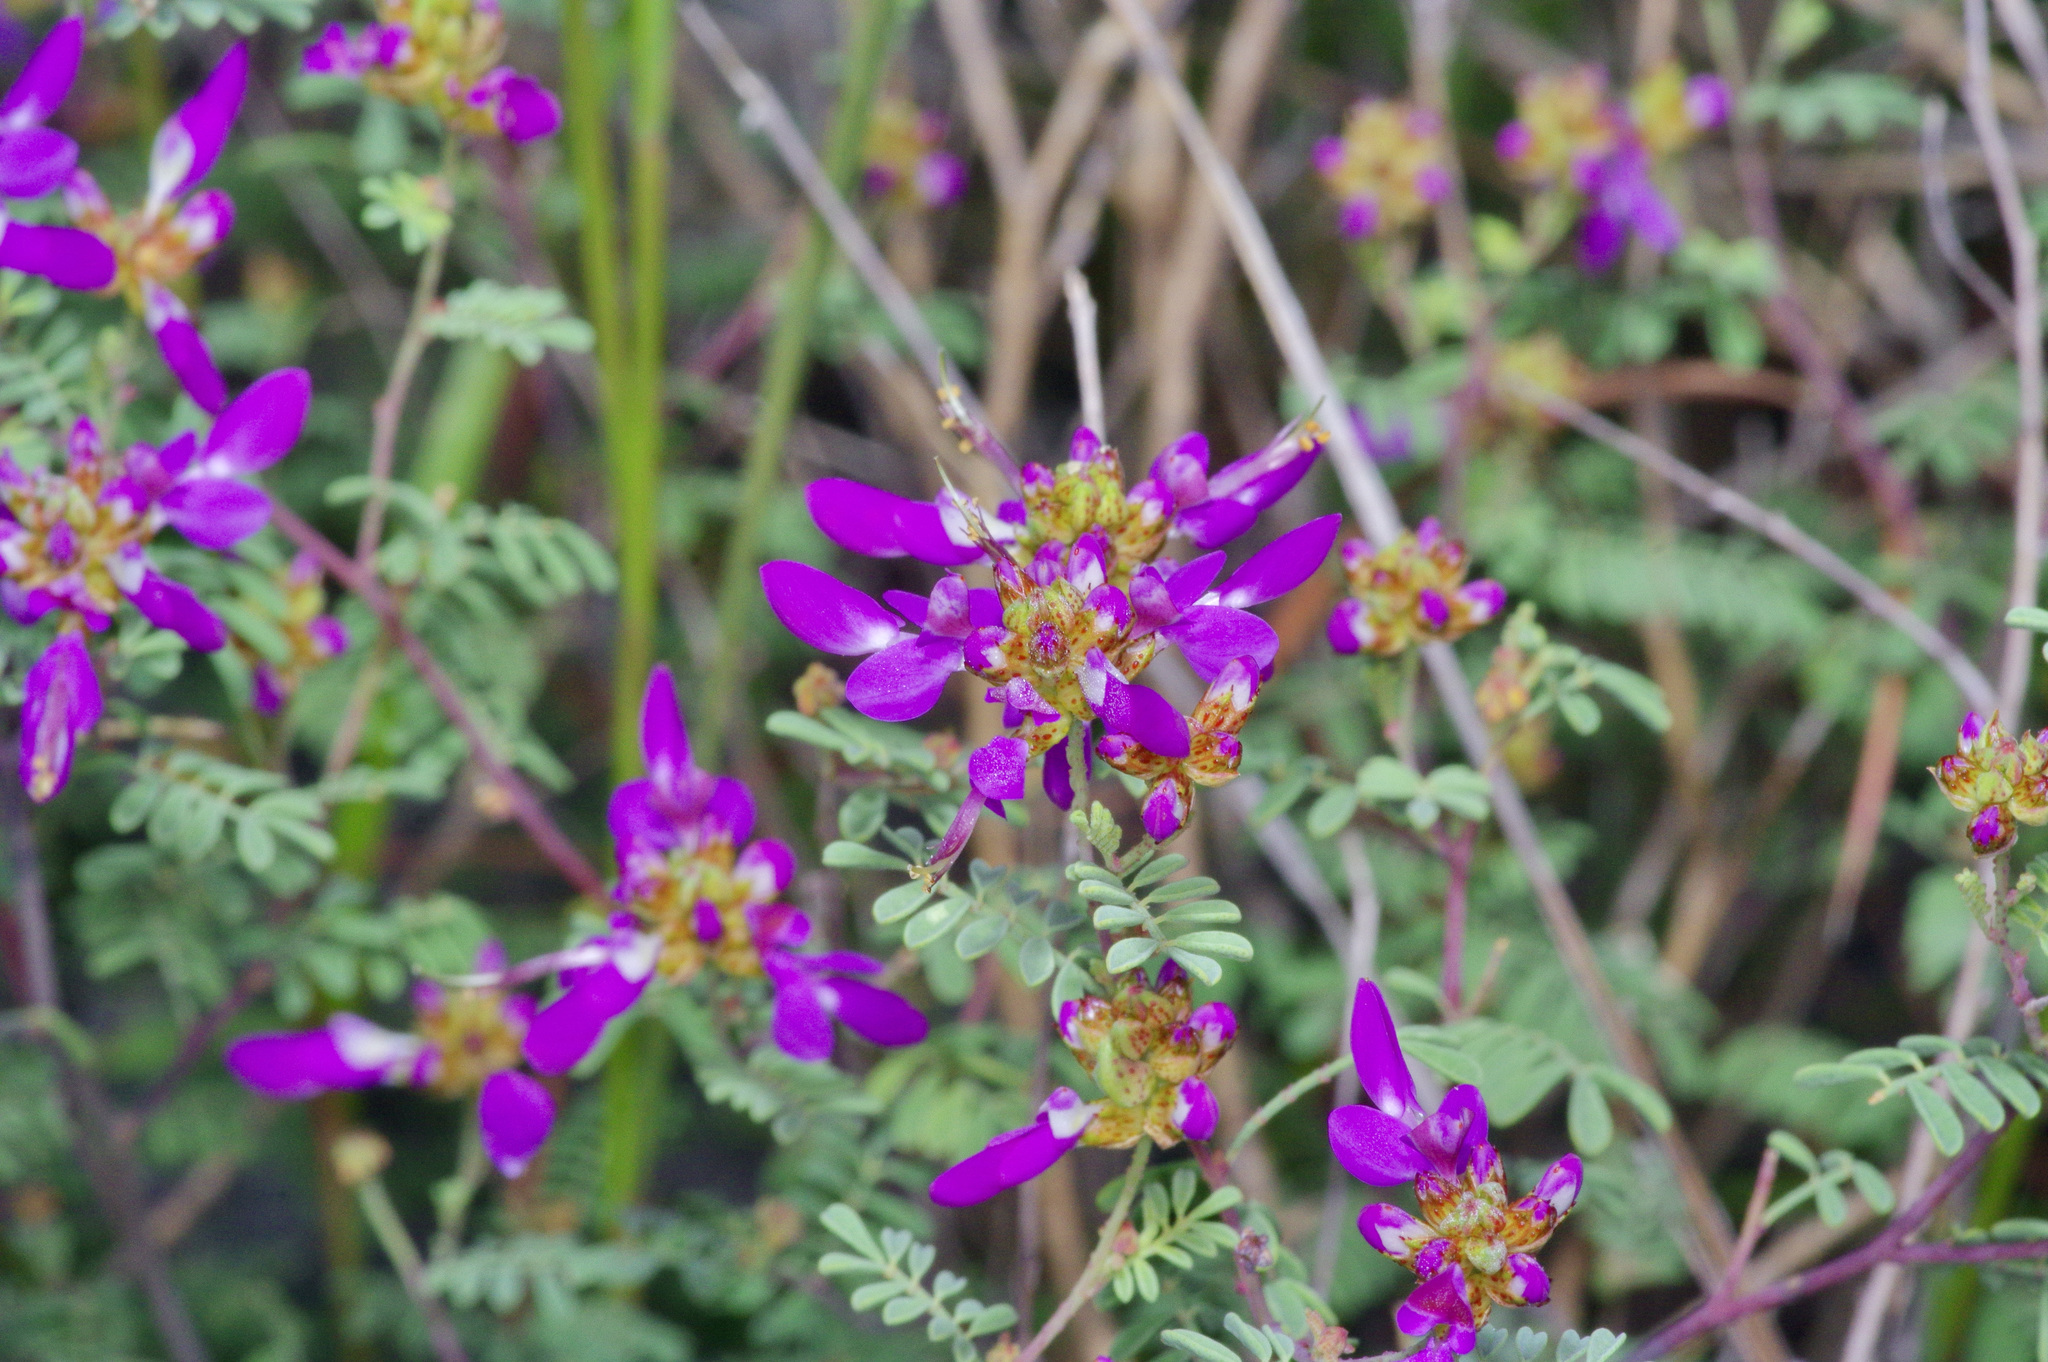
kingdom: Plantae
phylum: Tracheophyta
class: Magnoliopsida
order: Fabales
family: Fabaceae
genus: Dalea
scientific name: Dalea frutescens
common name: Black dalea
